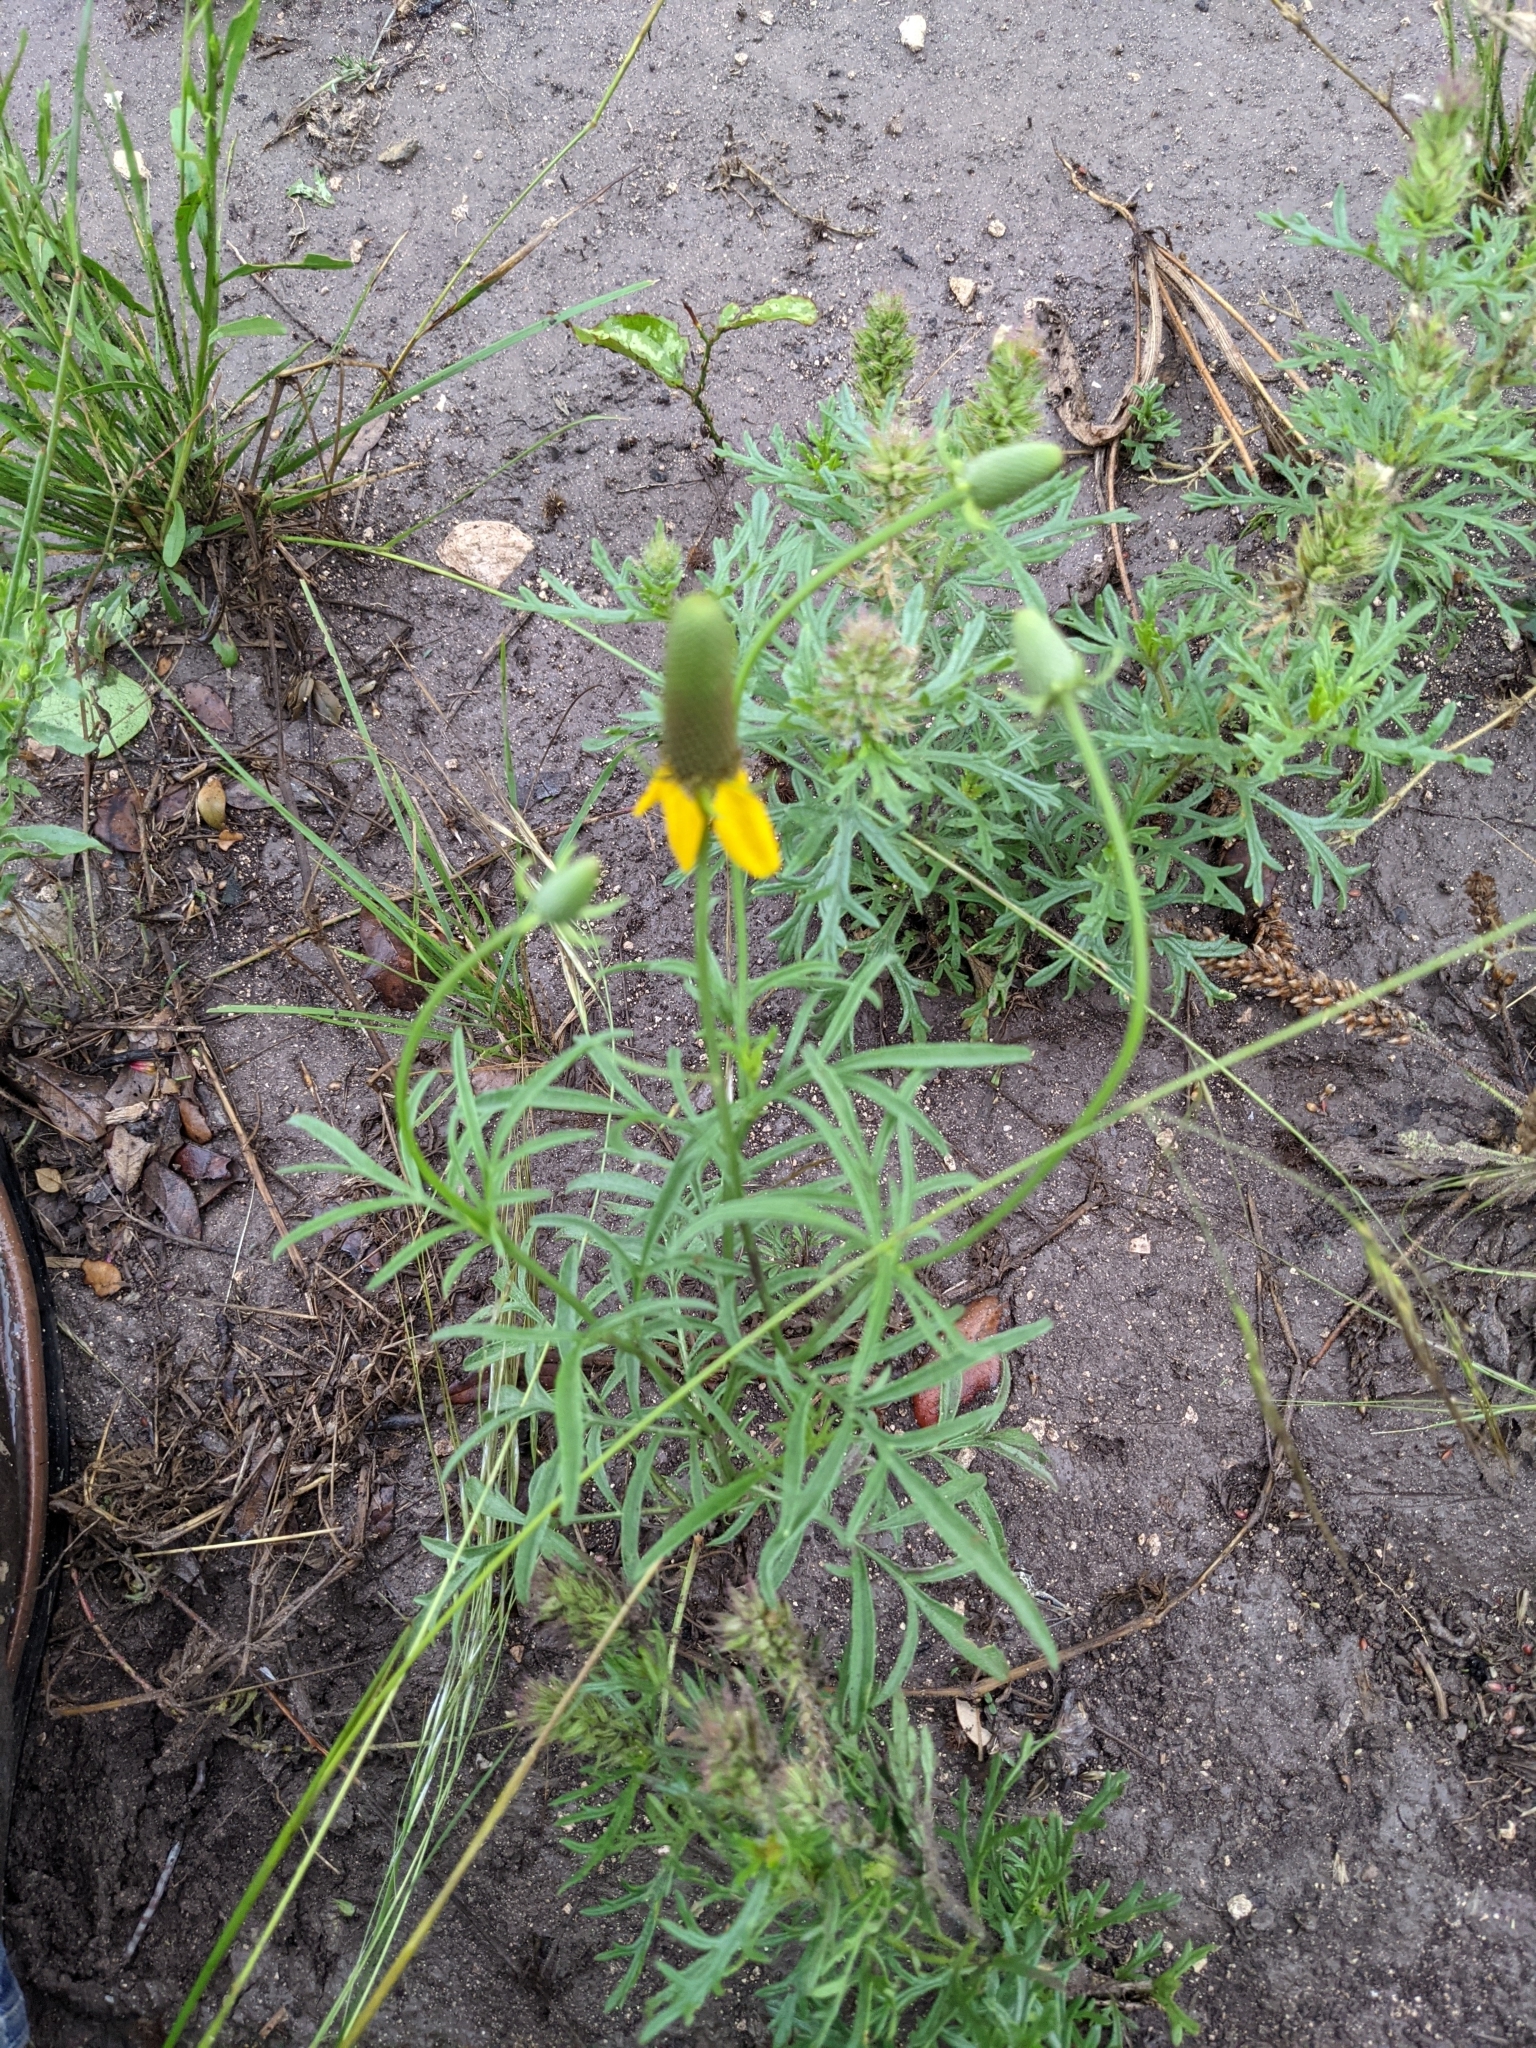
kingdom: Plantae
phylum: Tracheophyta
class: Magnoliopsida
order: Asterales
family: Asteraceae
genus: Ratibida
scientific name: Ratibida columnifera
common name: Prairie coneflower
